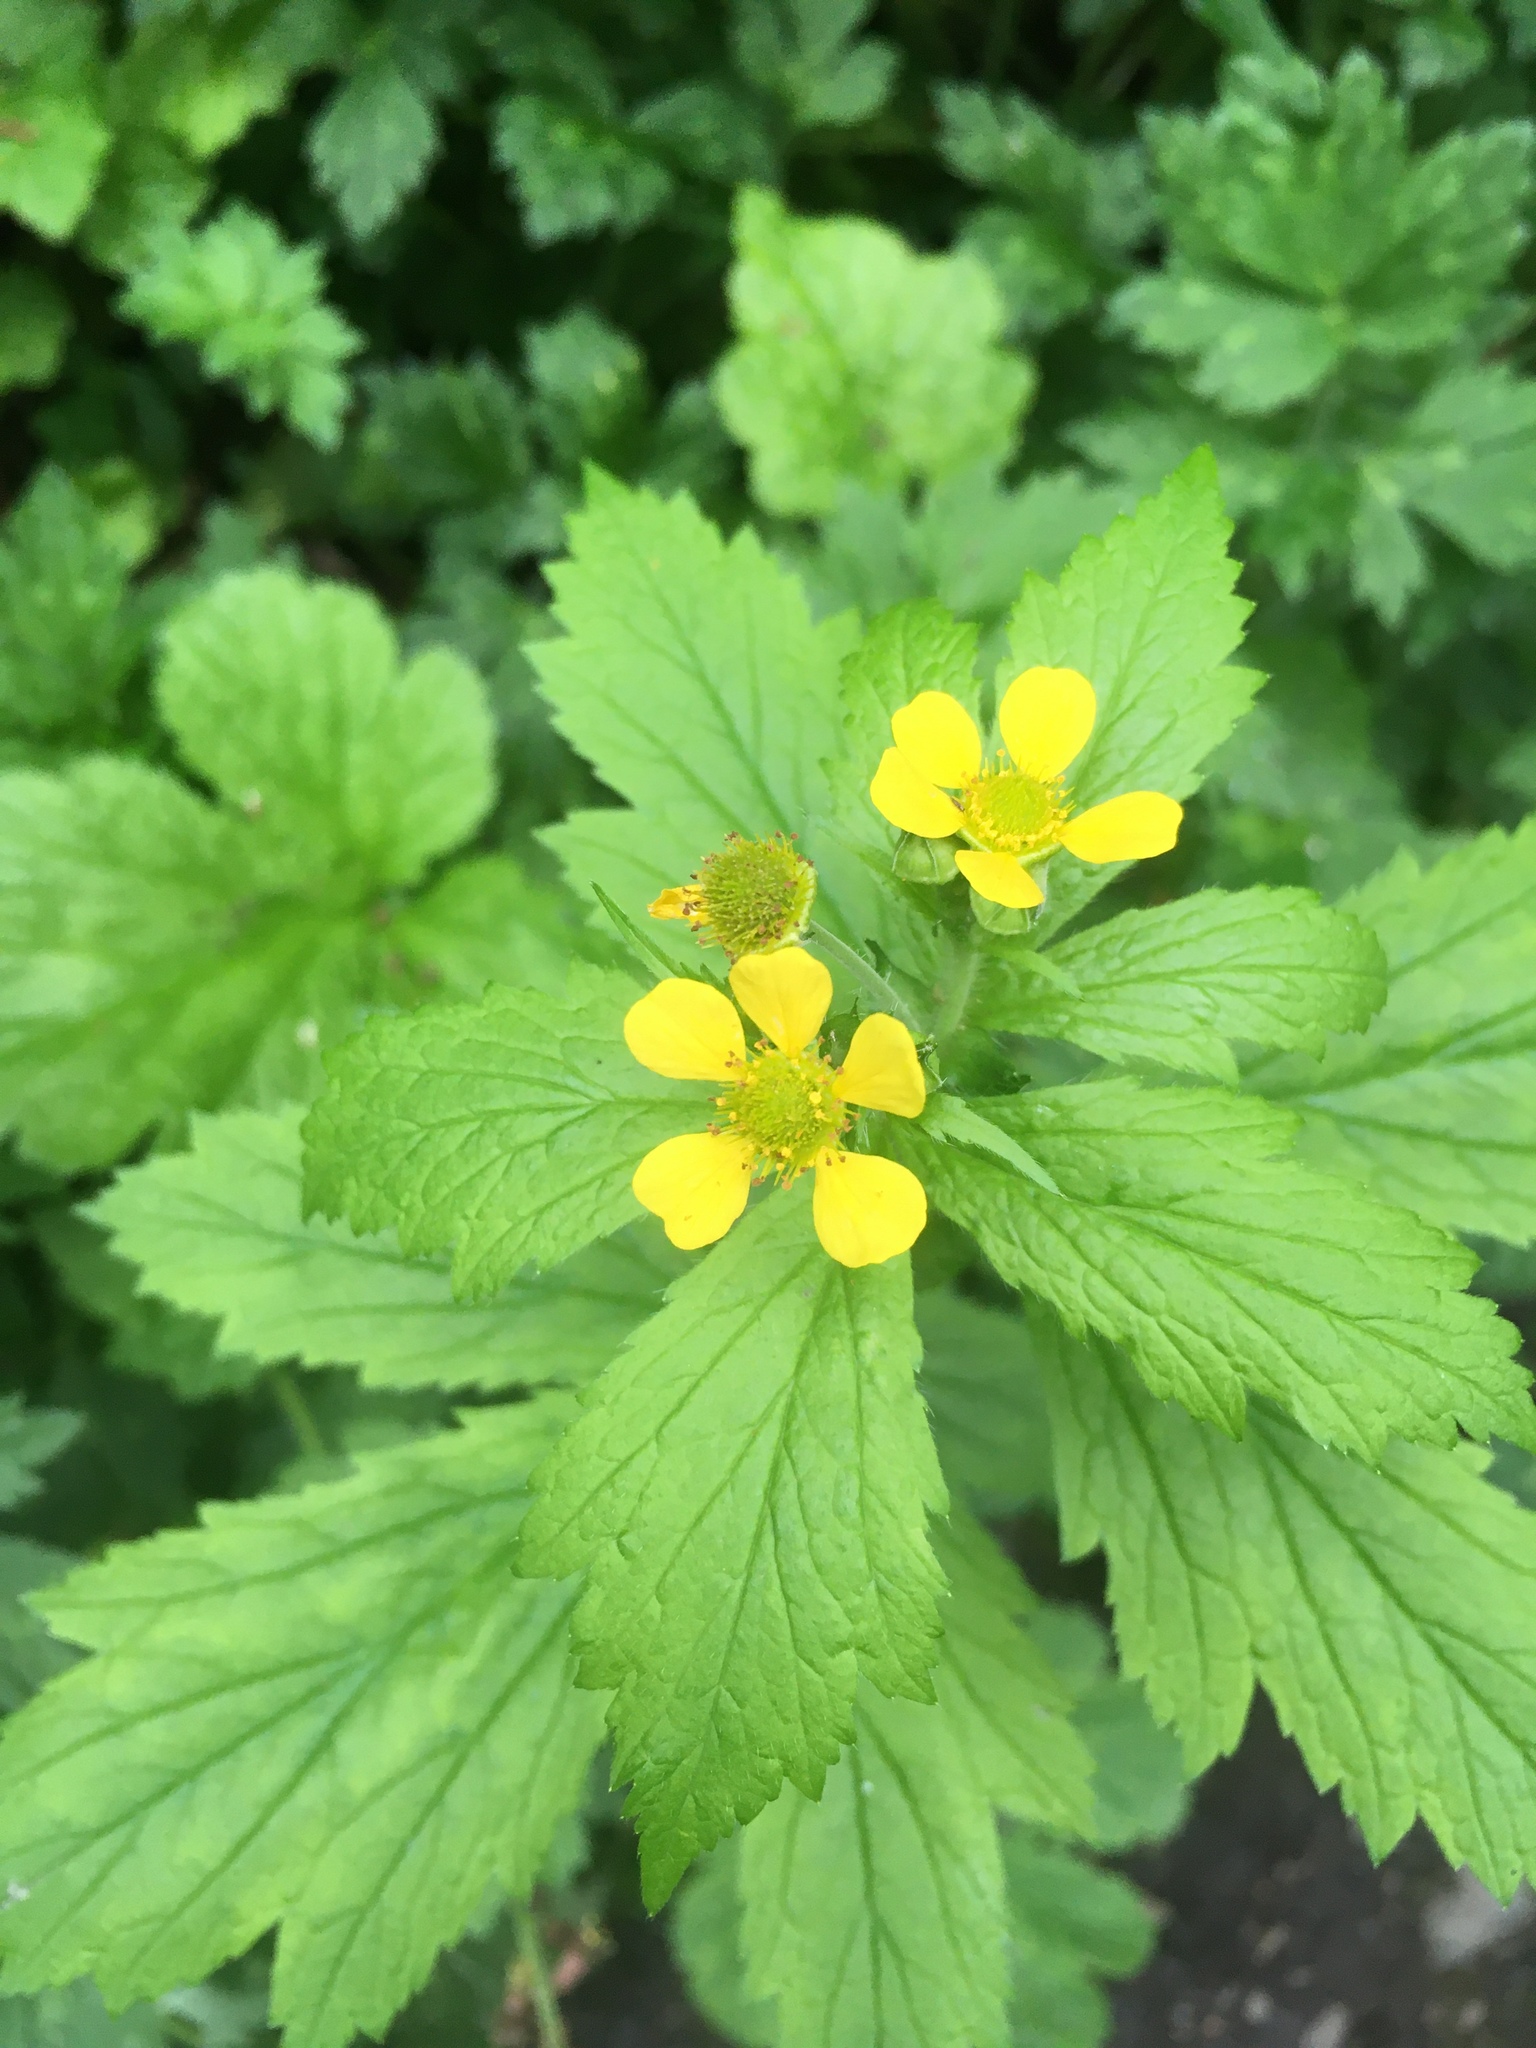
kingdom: Plantae
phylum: Tracheophyta
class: Magnoliopsida
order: Rosales
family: Rosaceae
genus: Geum
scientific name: Geum macrophyllum
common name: Large-leaved avens
